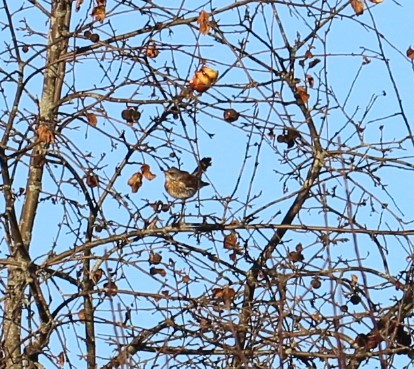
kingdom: Animalia
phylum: Chordata
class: Aves
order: Passeriformes
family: Turdidae
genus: Turdus
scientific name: Turdus pilaris
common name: Fieldfare
